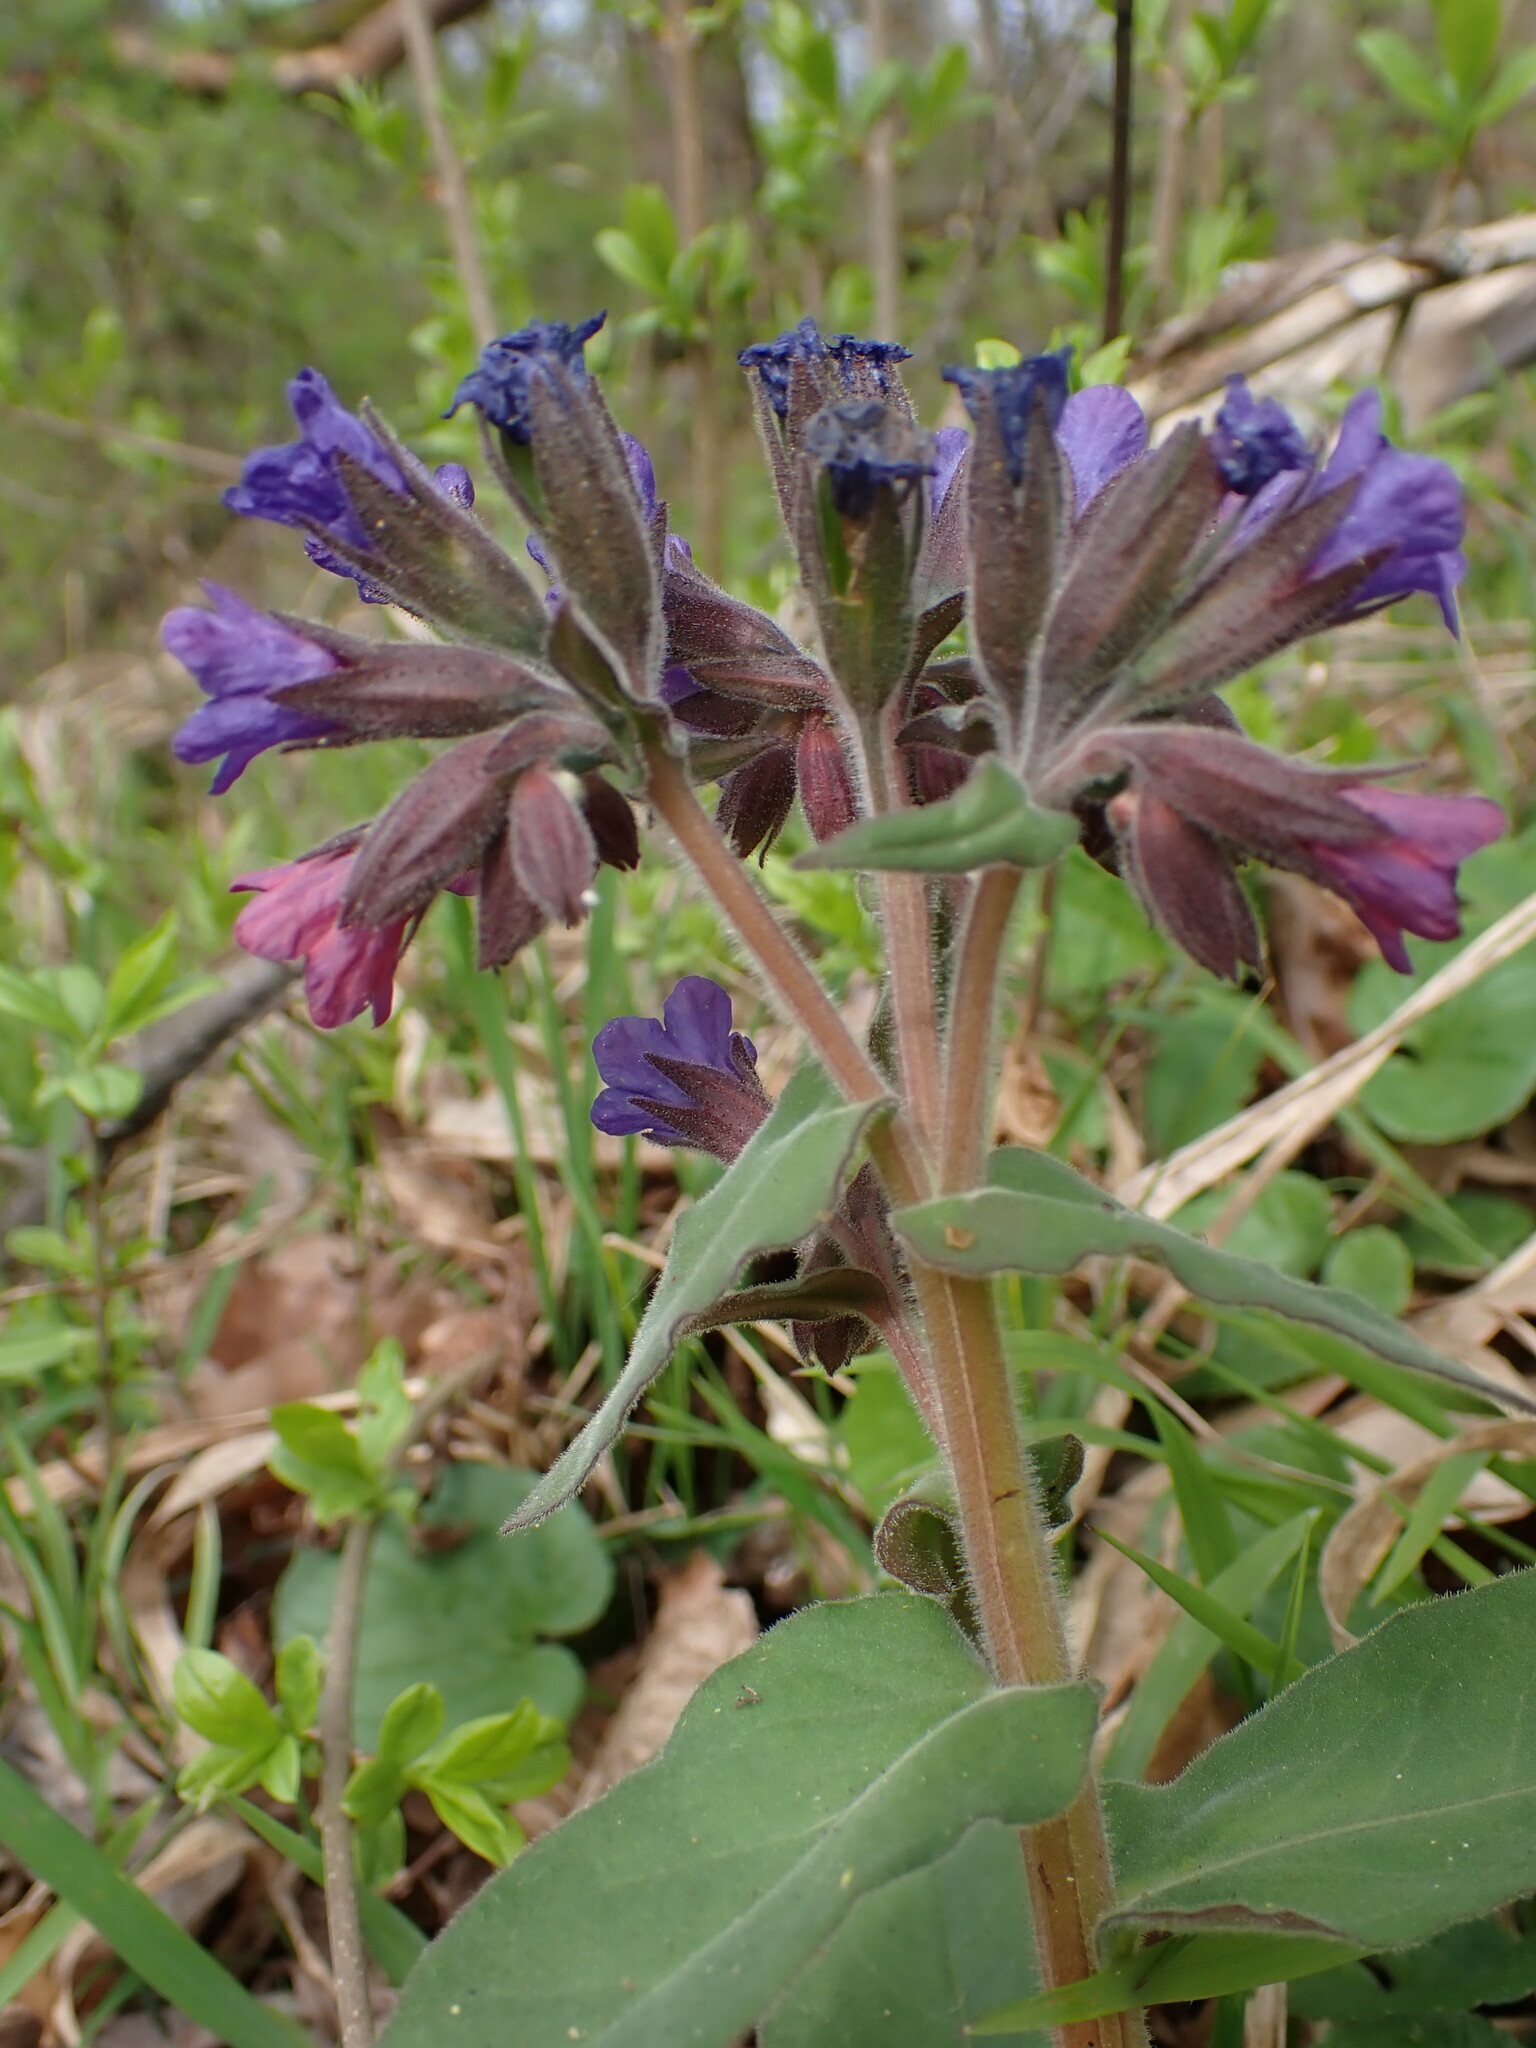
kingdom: Plantae
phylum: Tracheophyta
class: Magnoliopsida
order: Boraginales
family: Boraginaceae
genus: Pulmonaria
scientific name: Pulmonaria mollis
